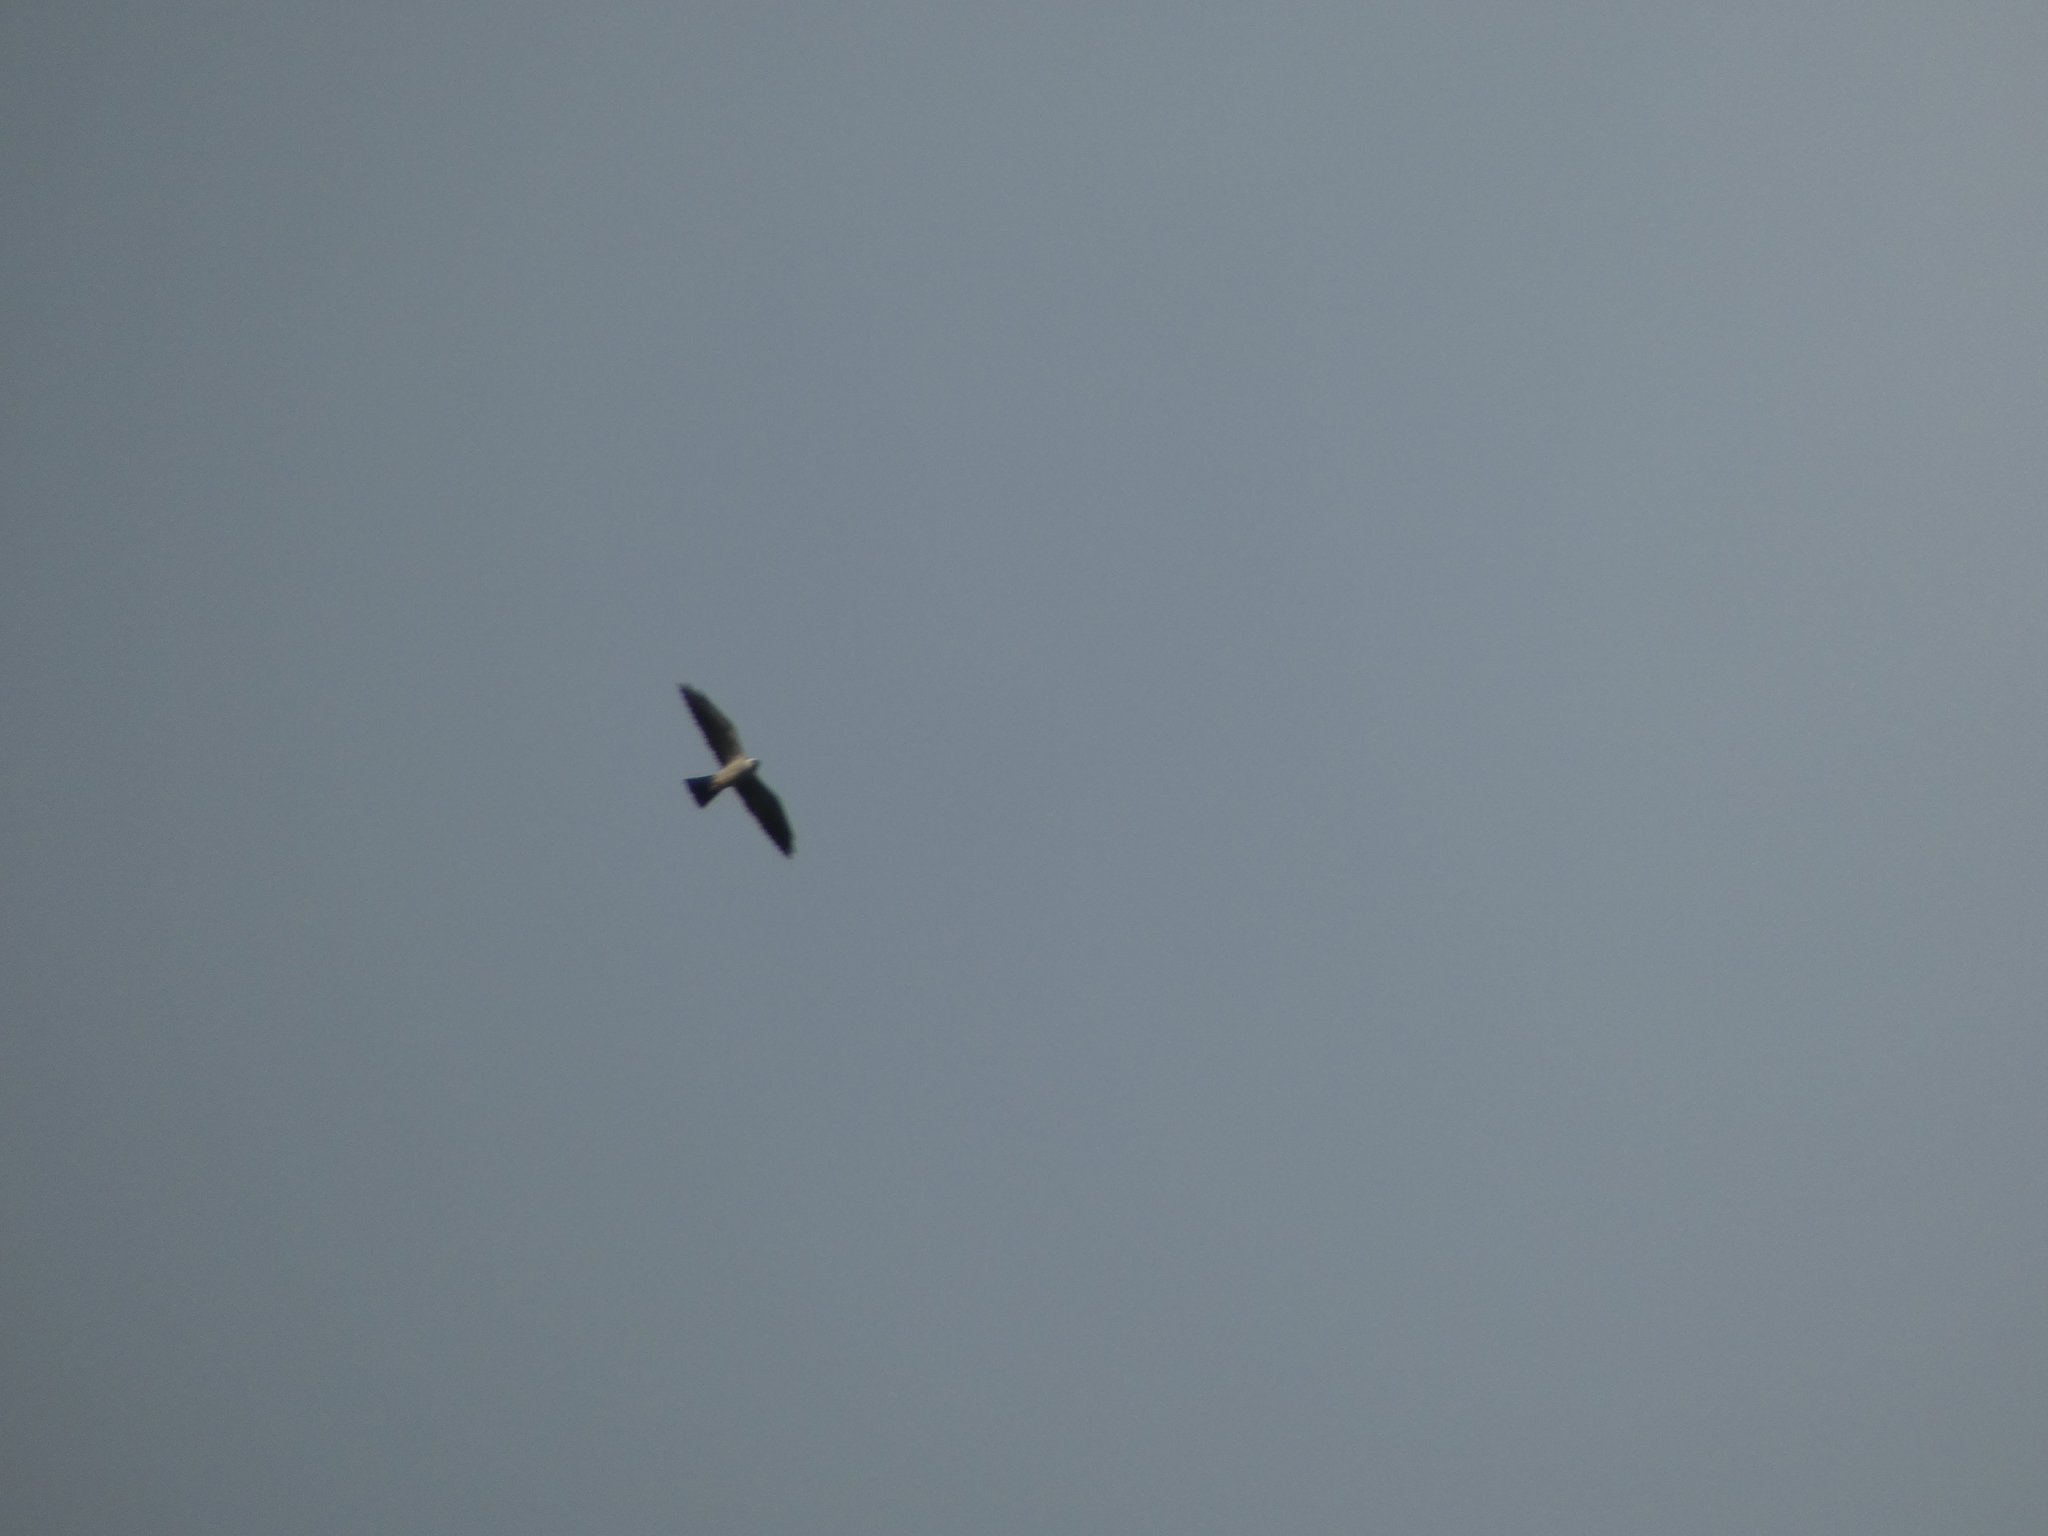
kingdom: Animalia
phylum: Chordata
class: Aves
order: Accipitriformes
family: Accipitridae
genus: Ictinia
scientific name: Ictinia mississippiensis
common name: Mississippi kite
